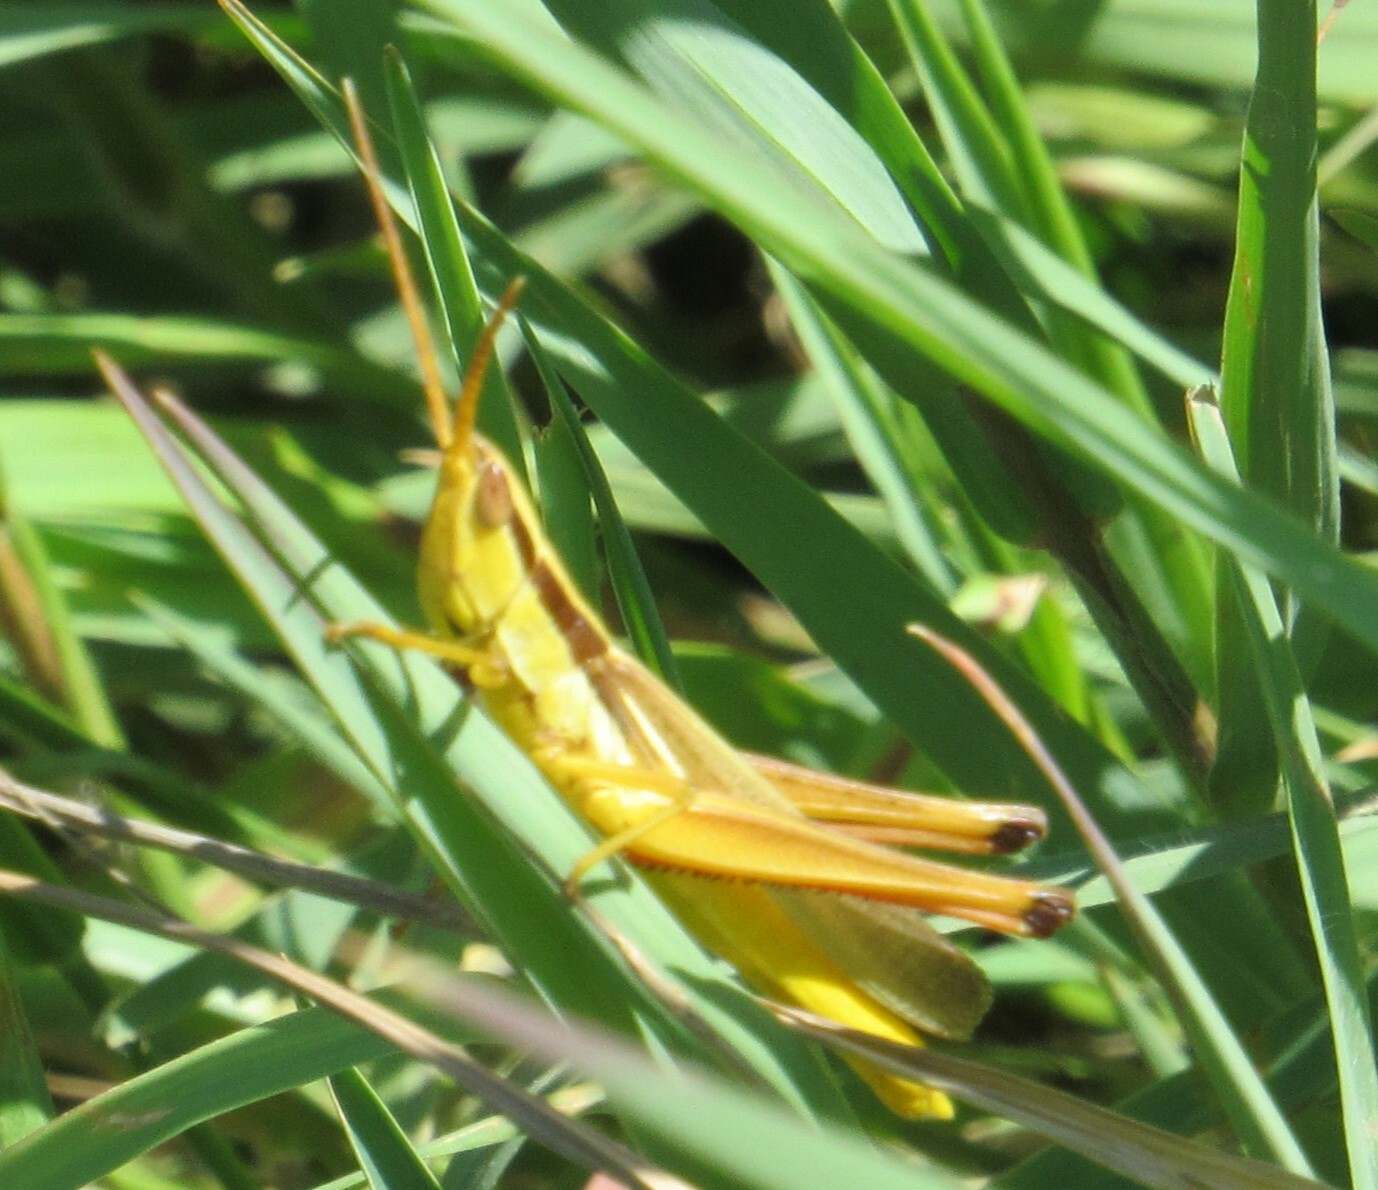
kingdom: Animalia
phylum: Arthropoda
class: Insecta
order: Orthoptera
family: Acrididae
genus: Mermiria
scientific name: Mermiria bivittata
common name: Two-striped mermiria grasshopper
